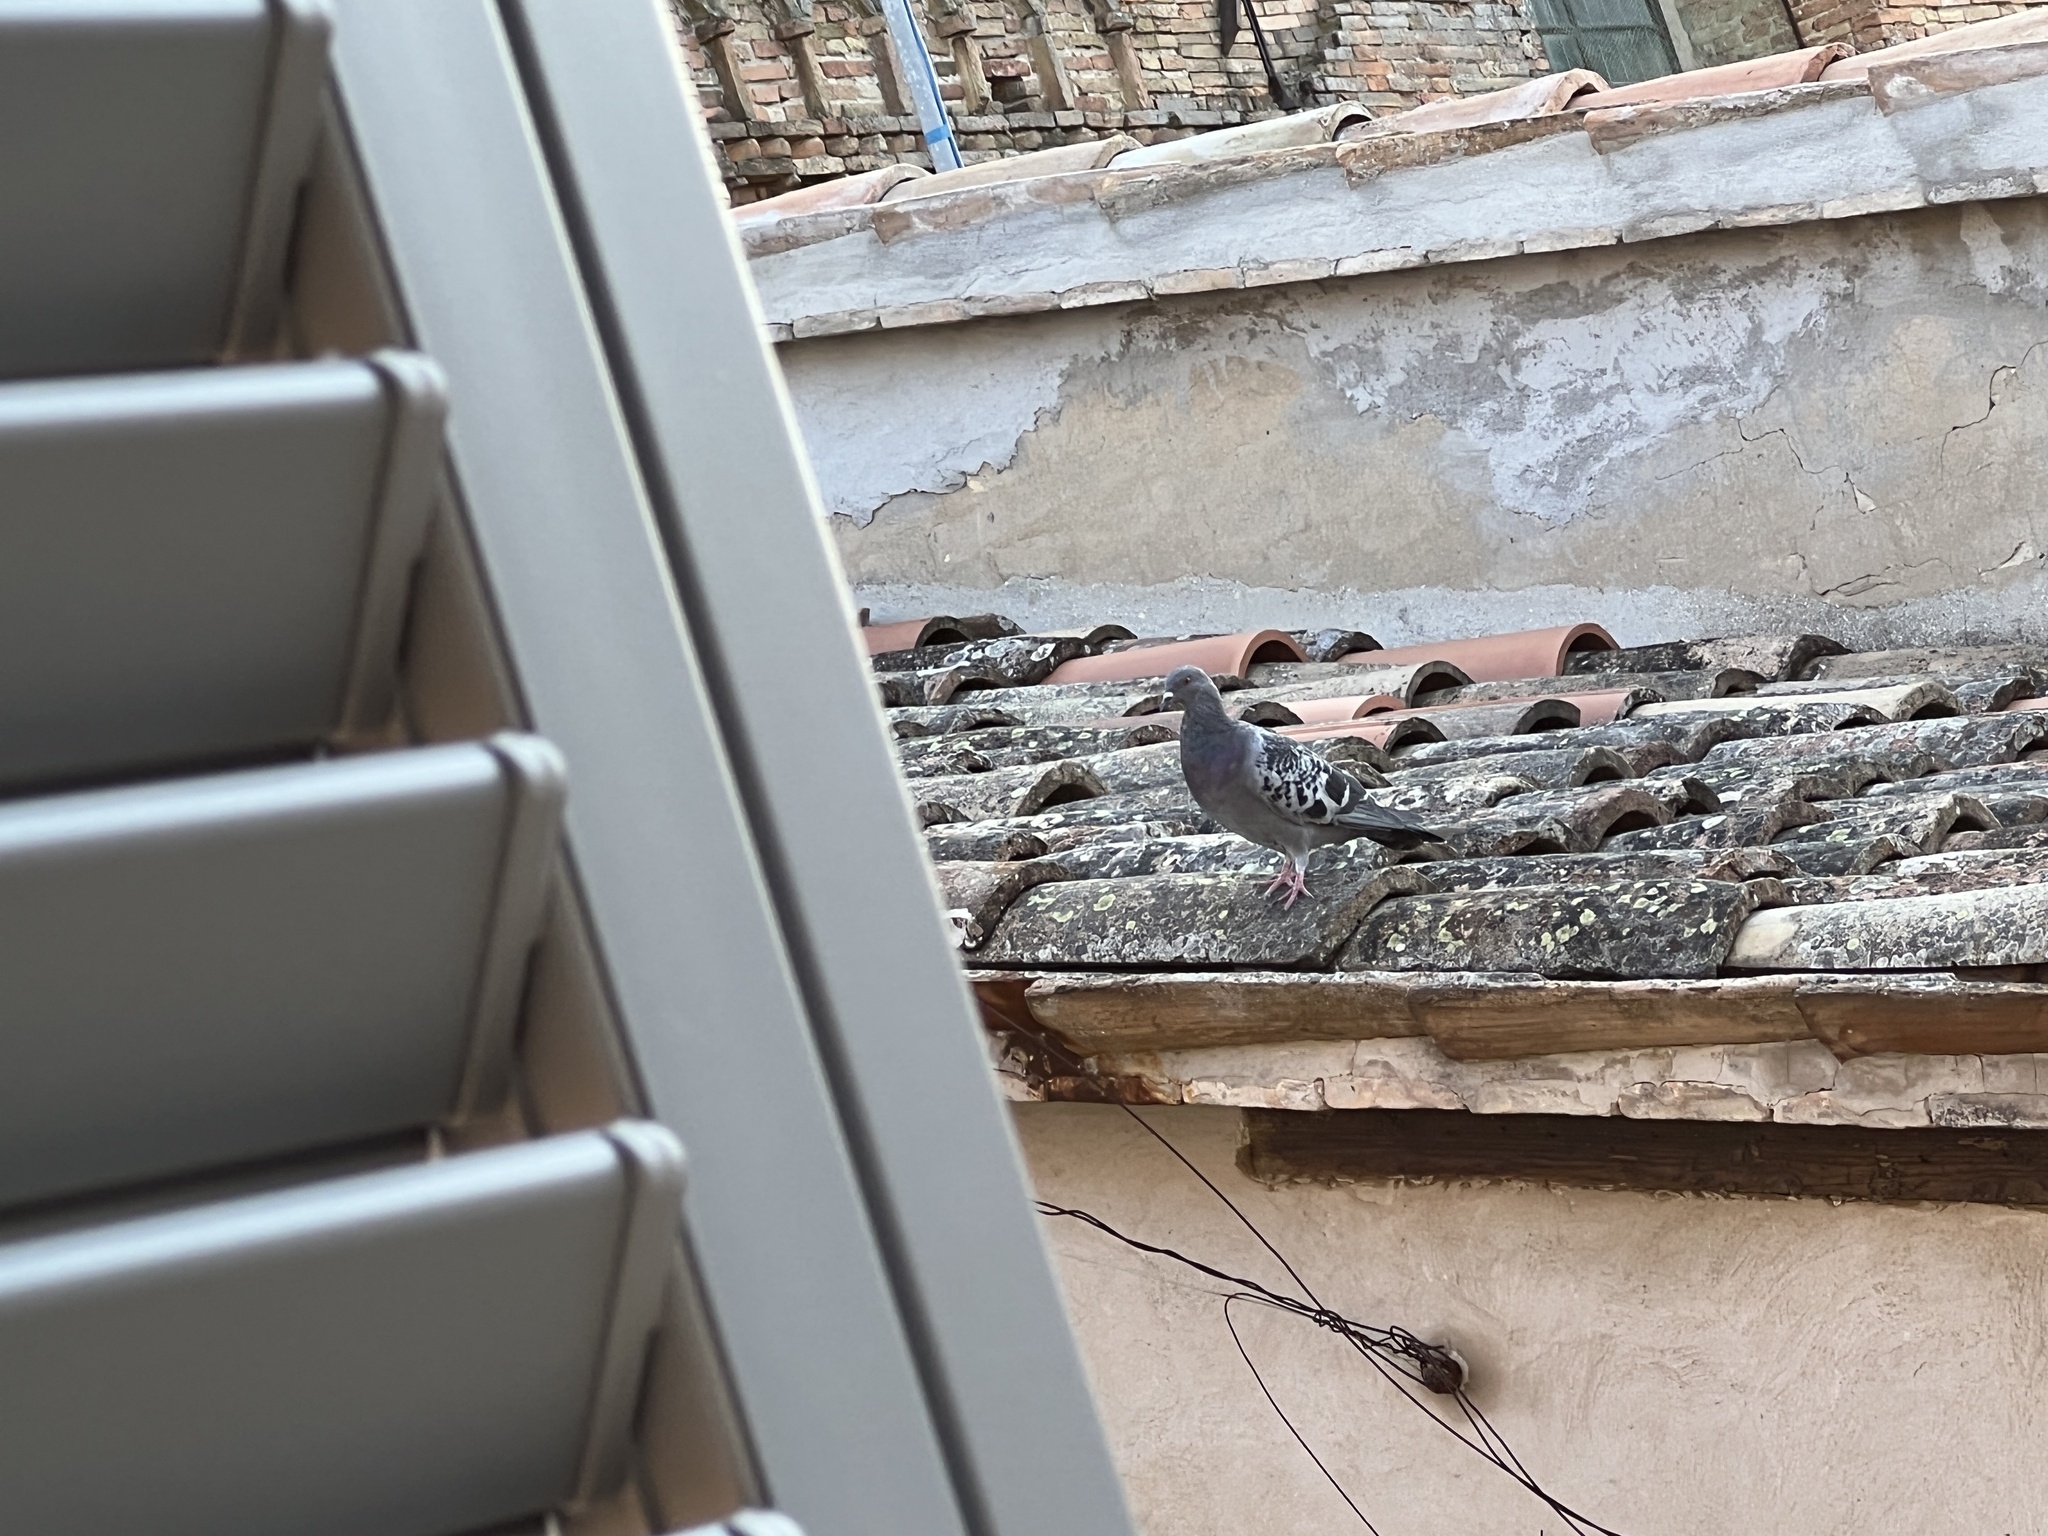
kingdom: Animalia
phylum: Chordata
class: Aves
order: Columbiformes
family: Columbidae
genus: Columba
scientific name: Columba livia
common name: Rock pigeon
